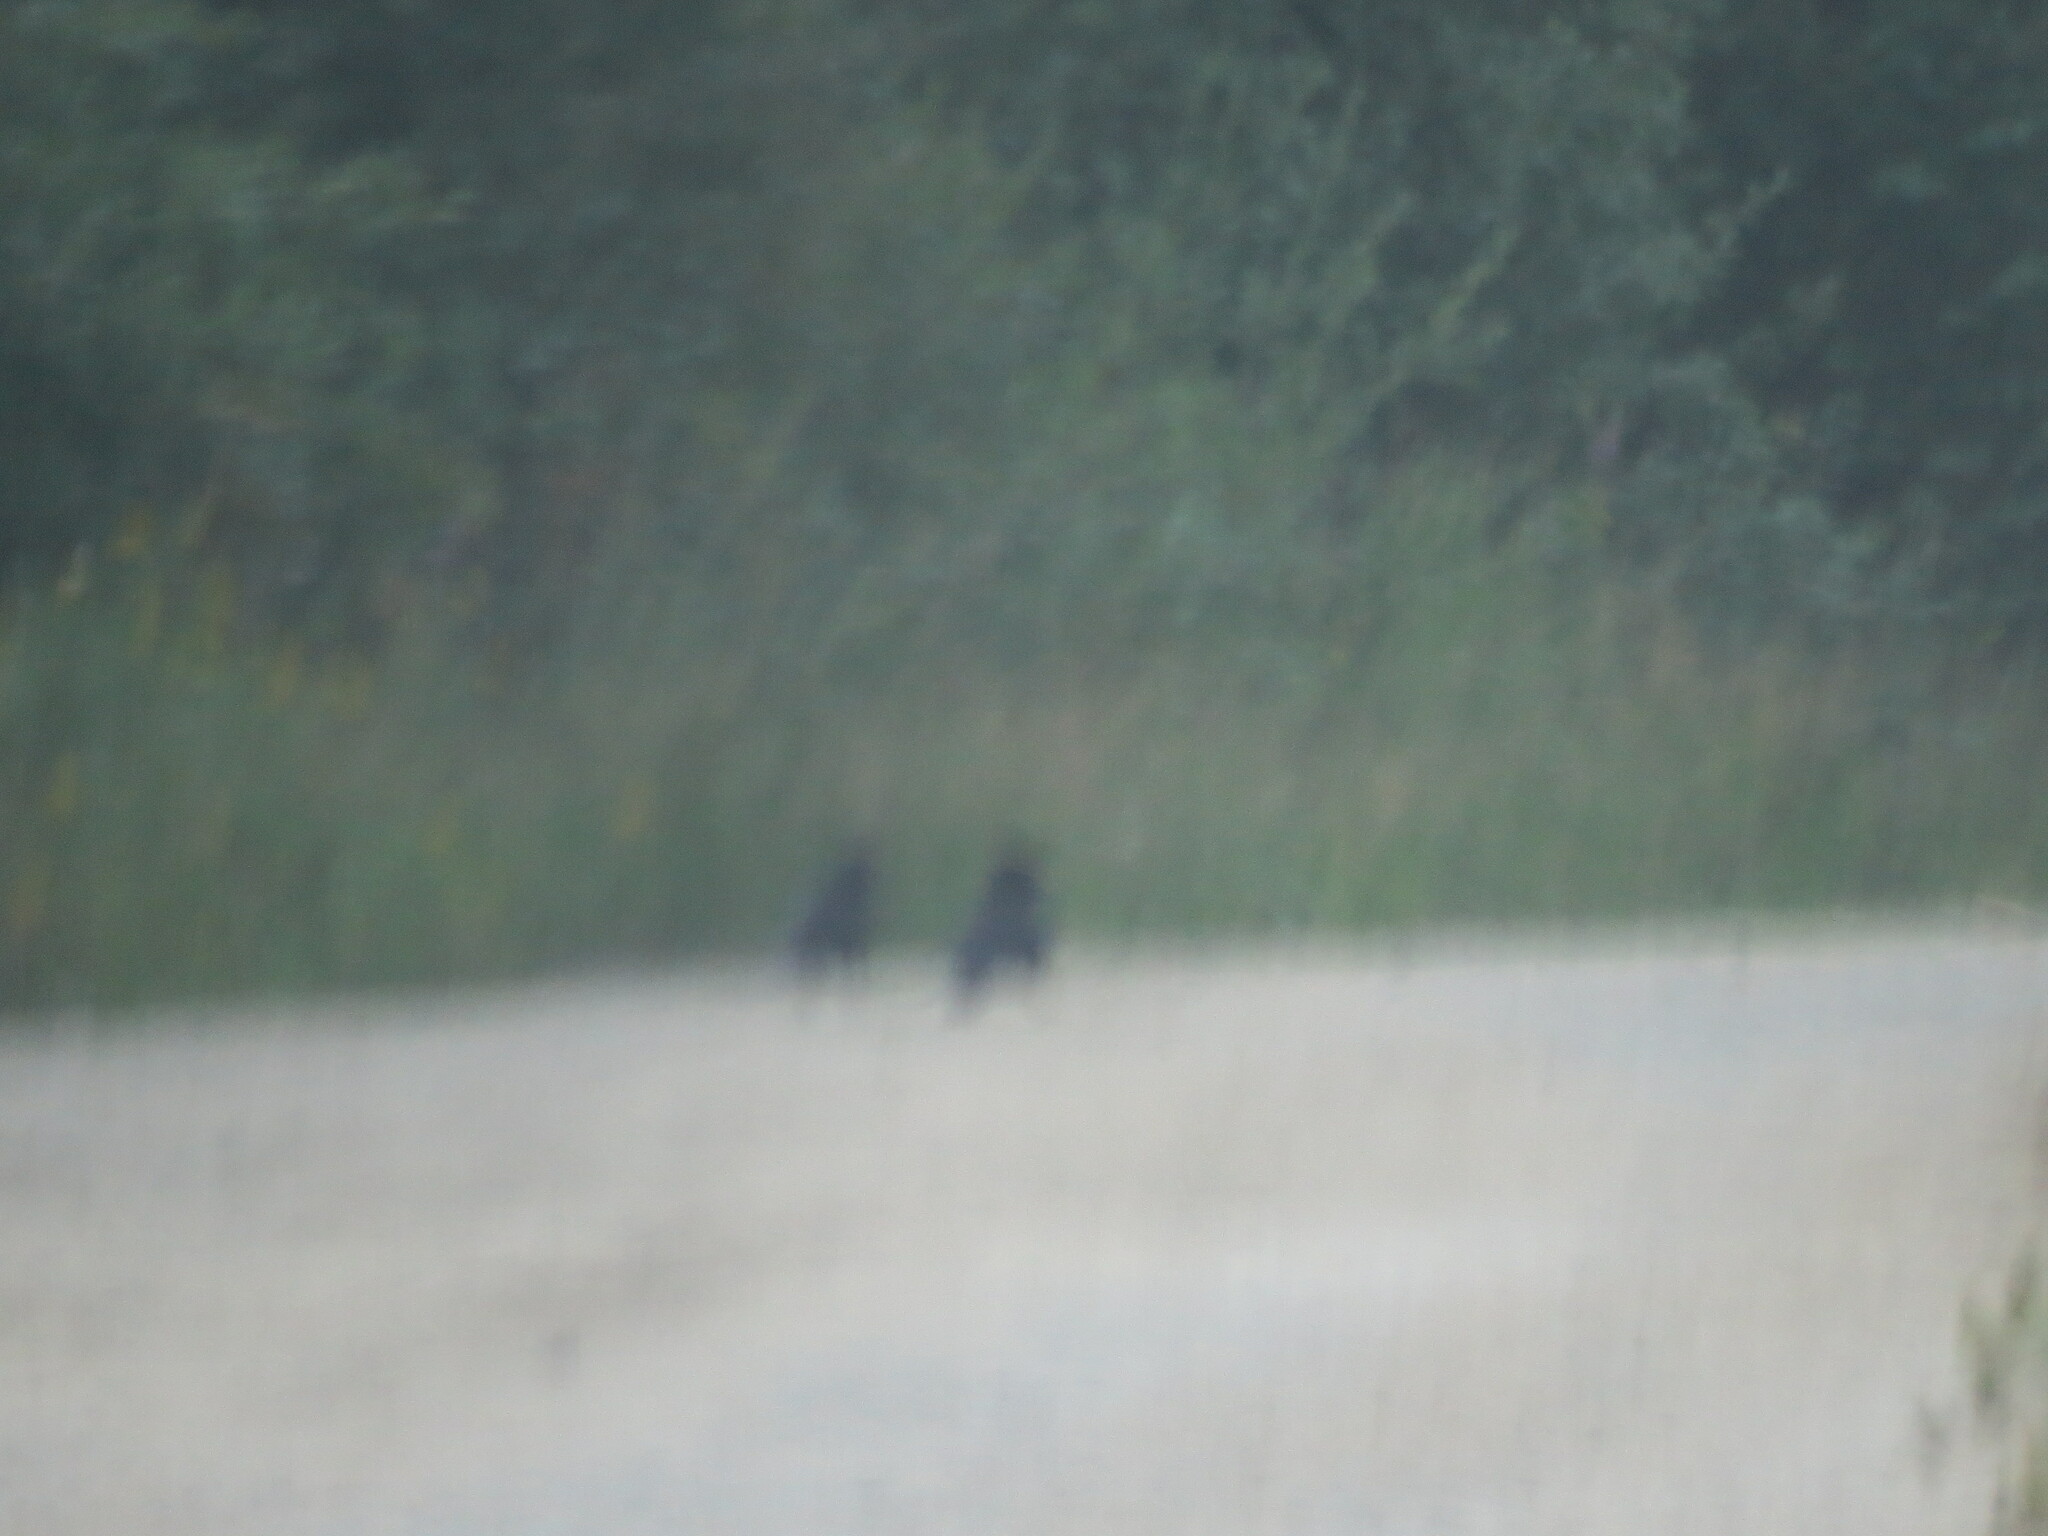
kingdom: Animalia
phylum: Chordata
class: Aves
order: Passeriformes
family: Corvidae
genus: Corvus
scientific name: Corvus corax
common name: Common raven
